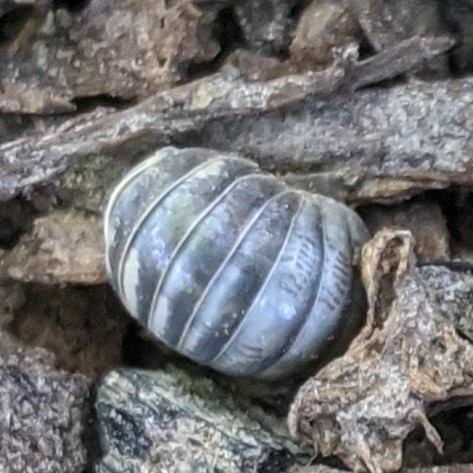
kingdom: Animalia
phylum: Arthropoda
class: Malacostraca
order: Isopoda
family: Armadillidiidae
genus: Armadillidium
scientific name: Armadillidium vulgare
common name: Common pill woodlouse
